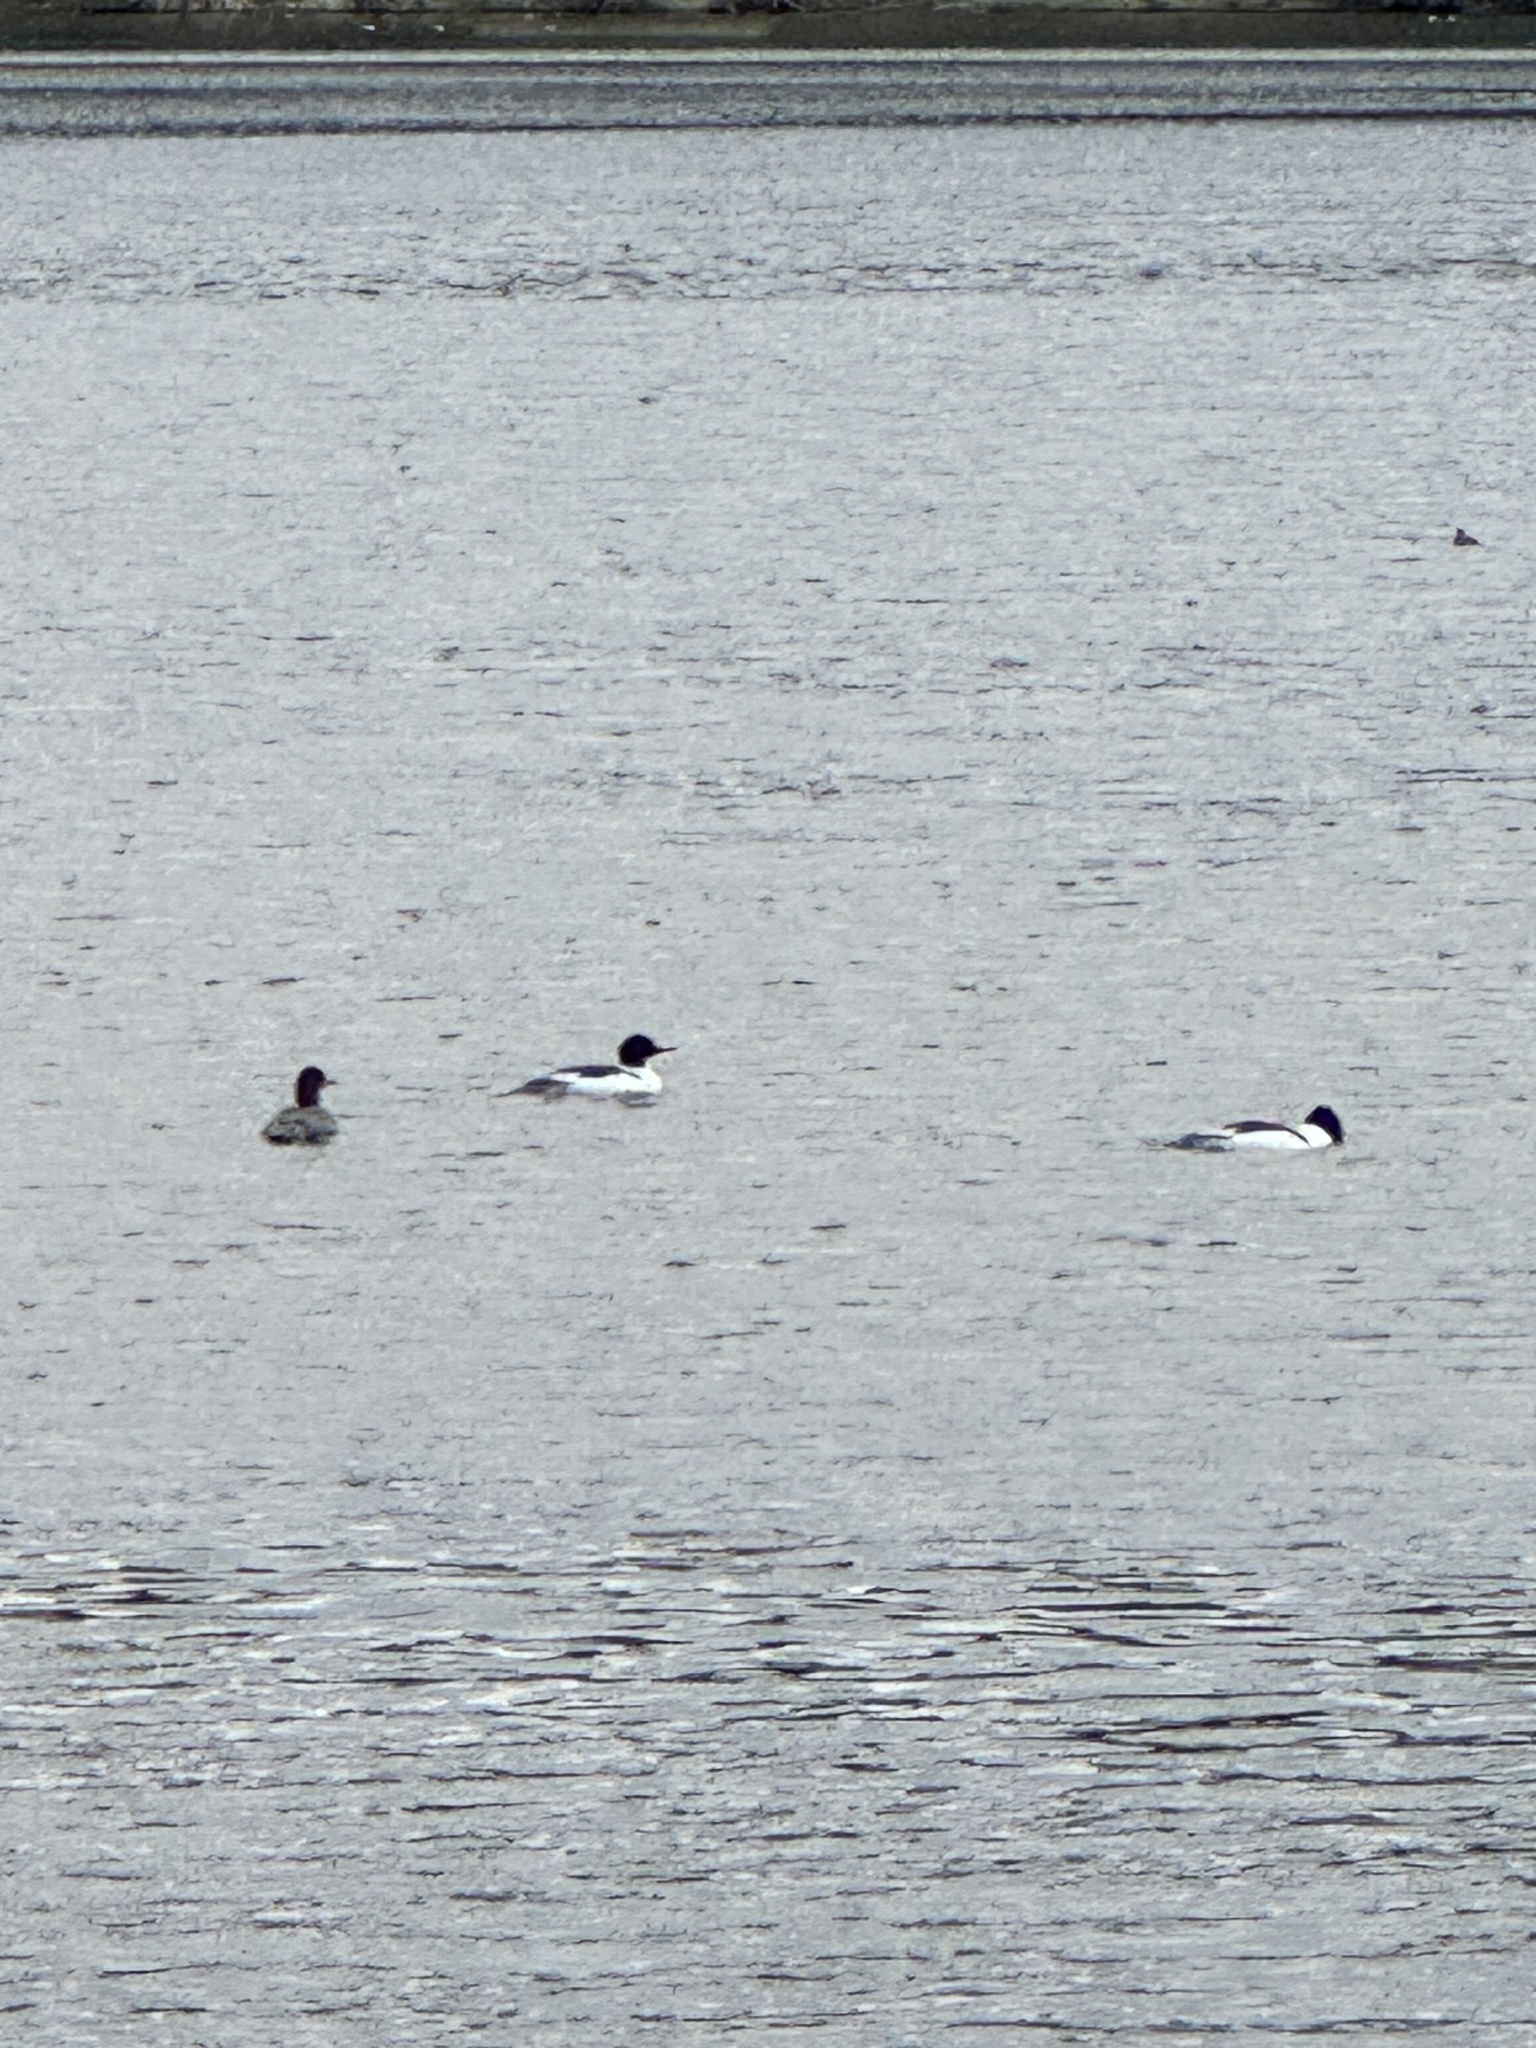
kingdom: Animalia
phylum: Chordata
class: Aves
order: Anseriformes
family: Anatidae
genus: Mergus
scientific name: Mergus merganser
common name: Common merganser
